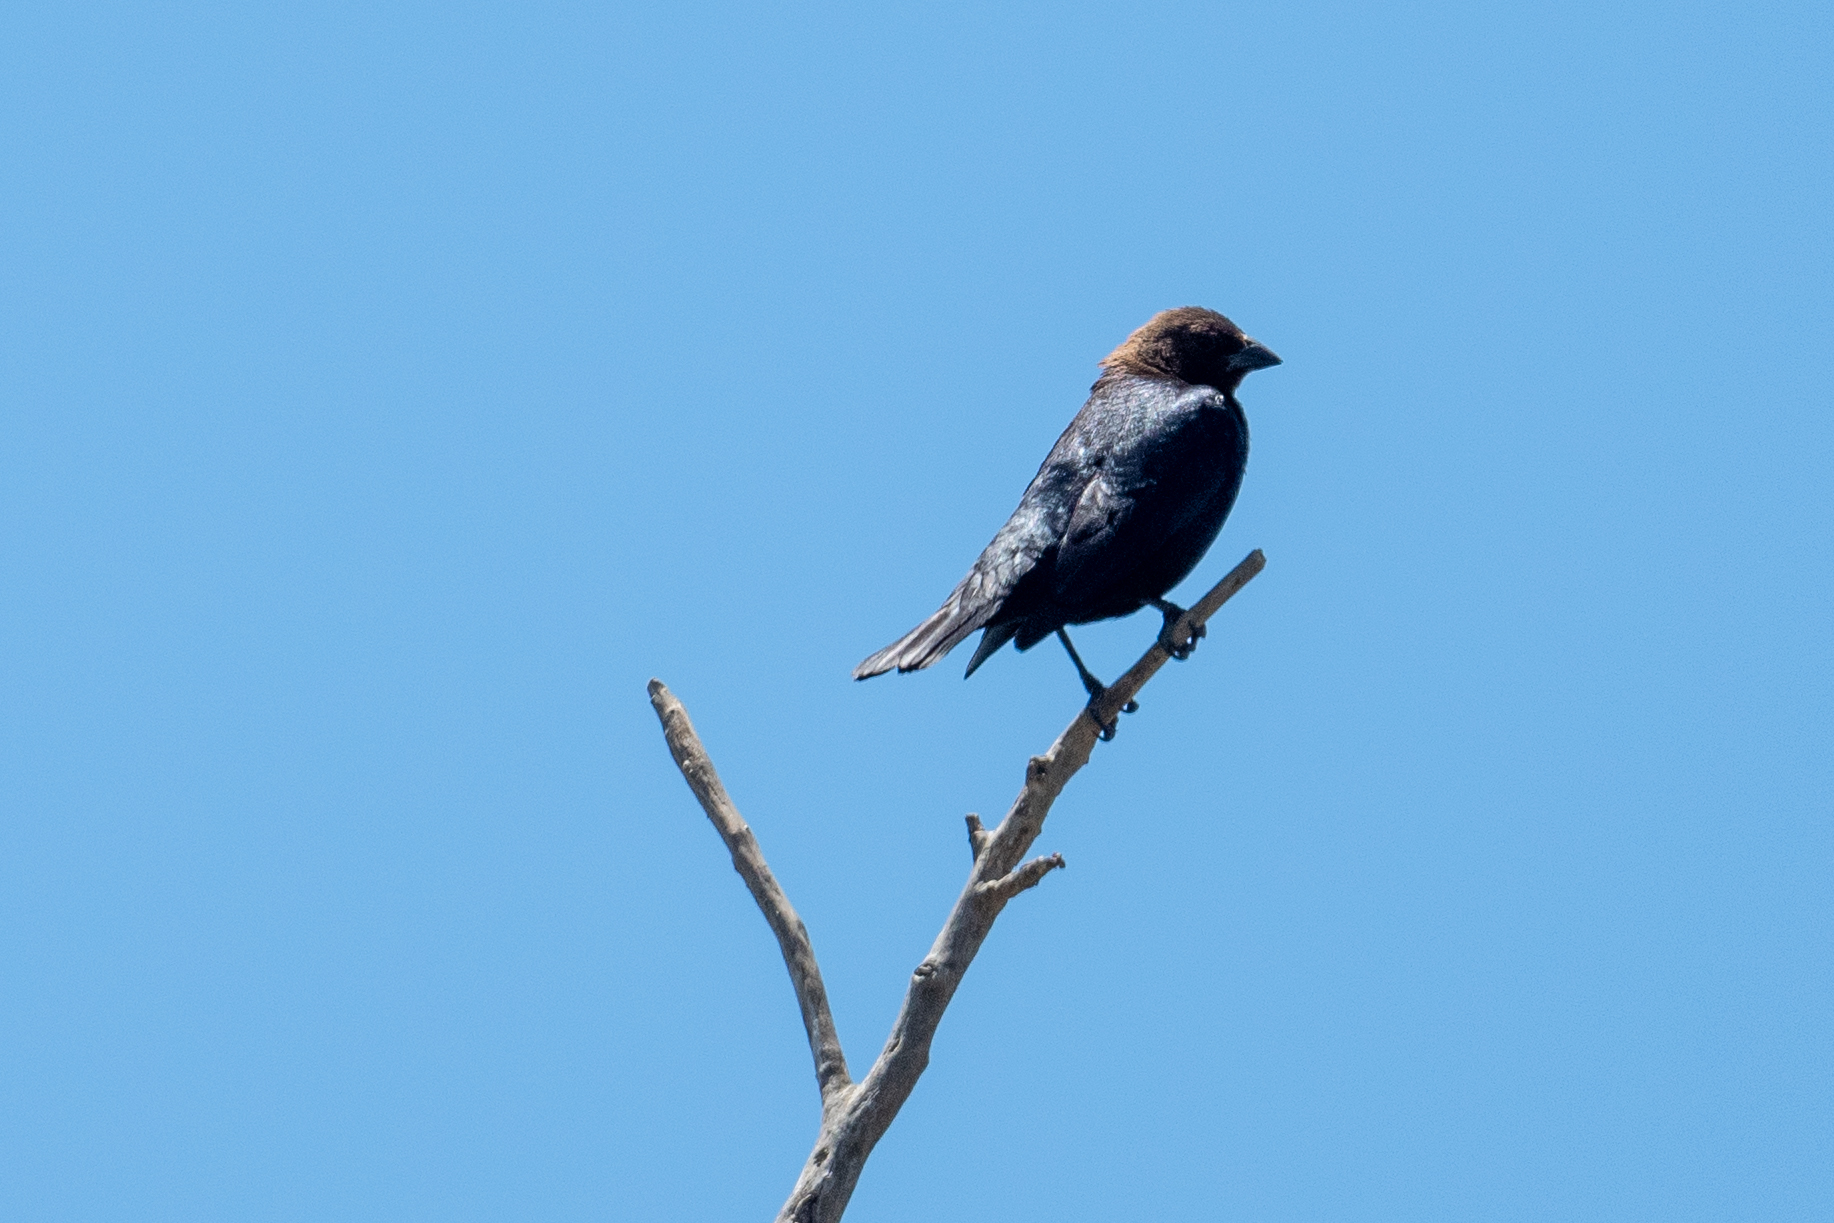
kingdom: Animalia
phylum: Chordata
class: Aves
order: Passeriformes
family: Icteridae
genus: Molothrus
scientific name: Molothrus ater
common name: Brown-headed cowbird
